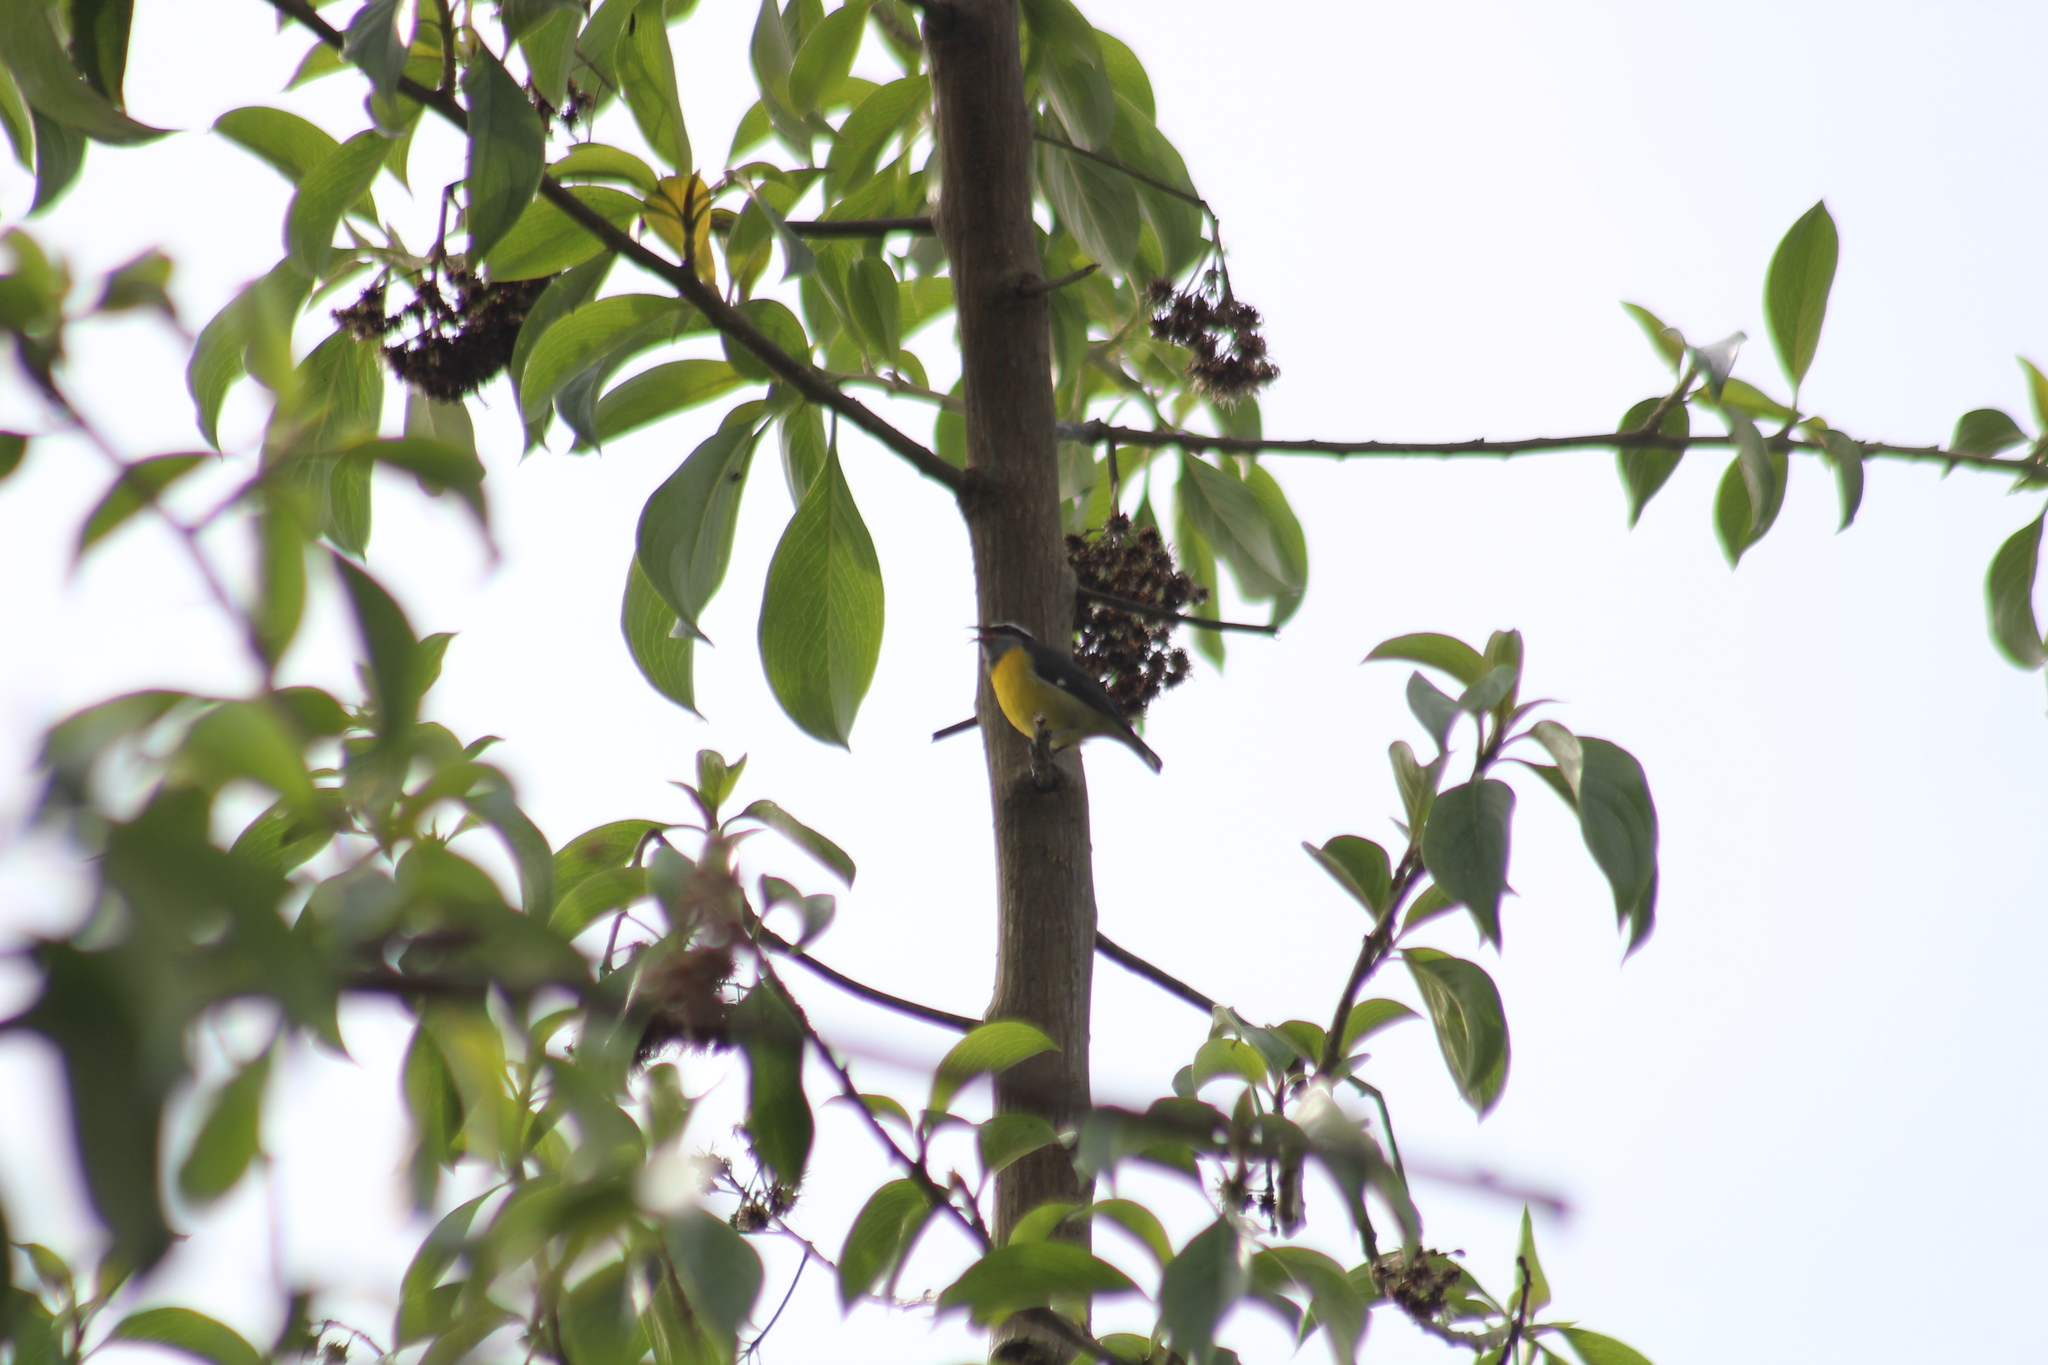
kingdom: Animalia
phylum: Chordata
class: Aves
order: Passeriformes
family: Thraupidae
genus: Coereba
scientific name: Coereba flaveola
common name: Bananaquit
